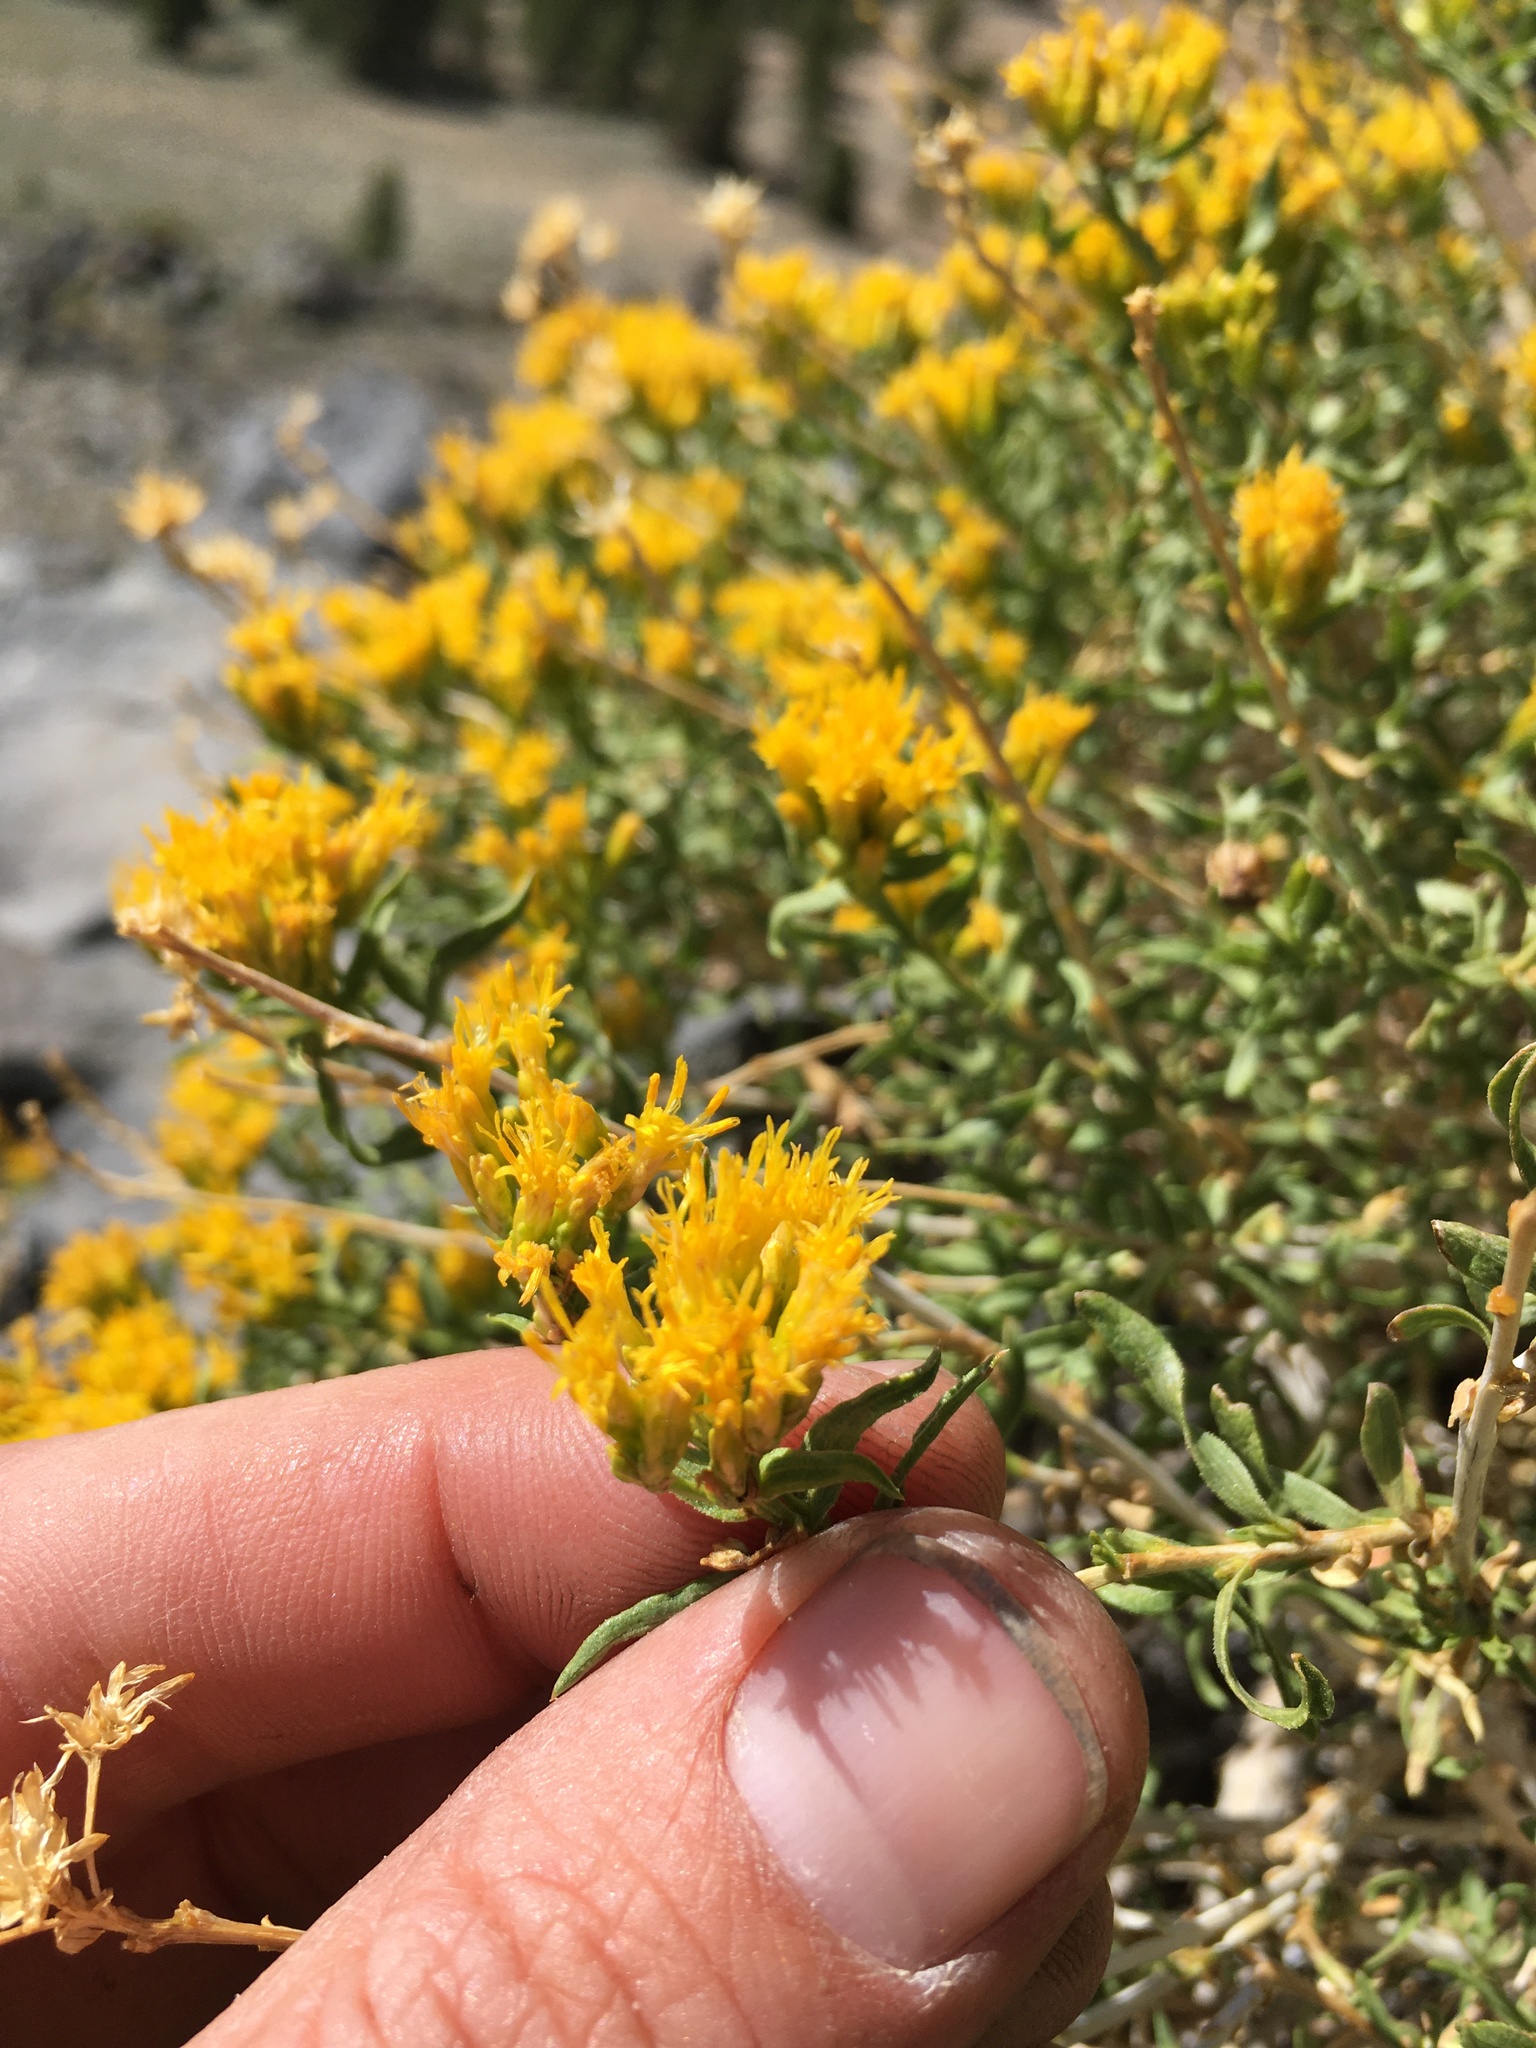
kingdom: Plantae
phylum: Tracheophyta
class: Magnoliopsida
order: Asterales
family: Asteraceae
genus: Chrysothamnus
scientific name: Chrysothamnus viscidiflorus
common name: Yellow rabbitbrush
